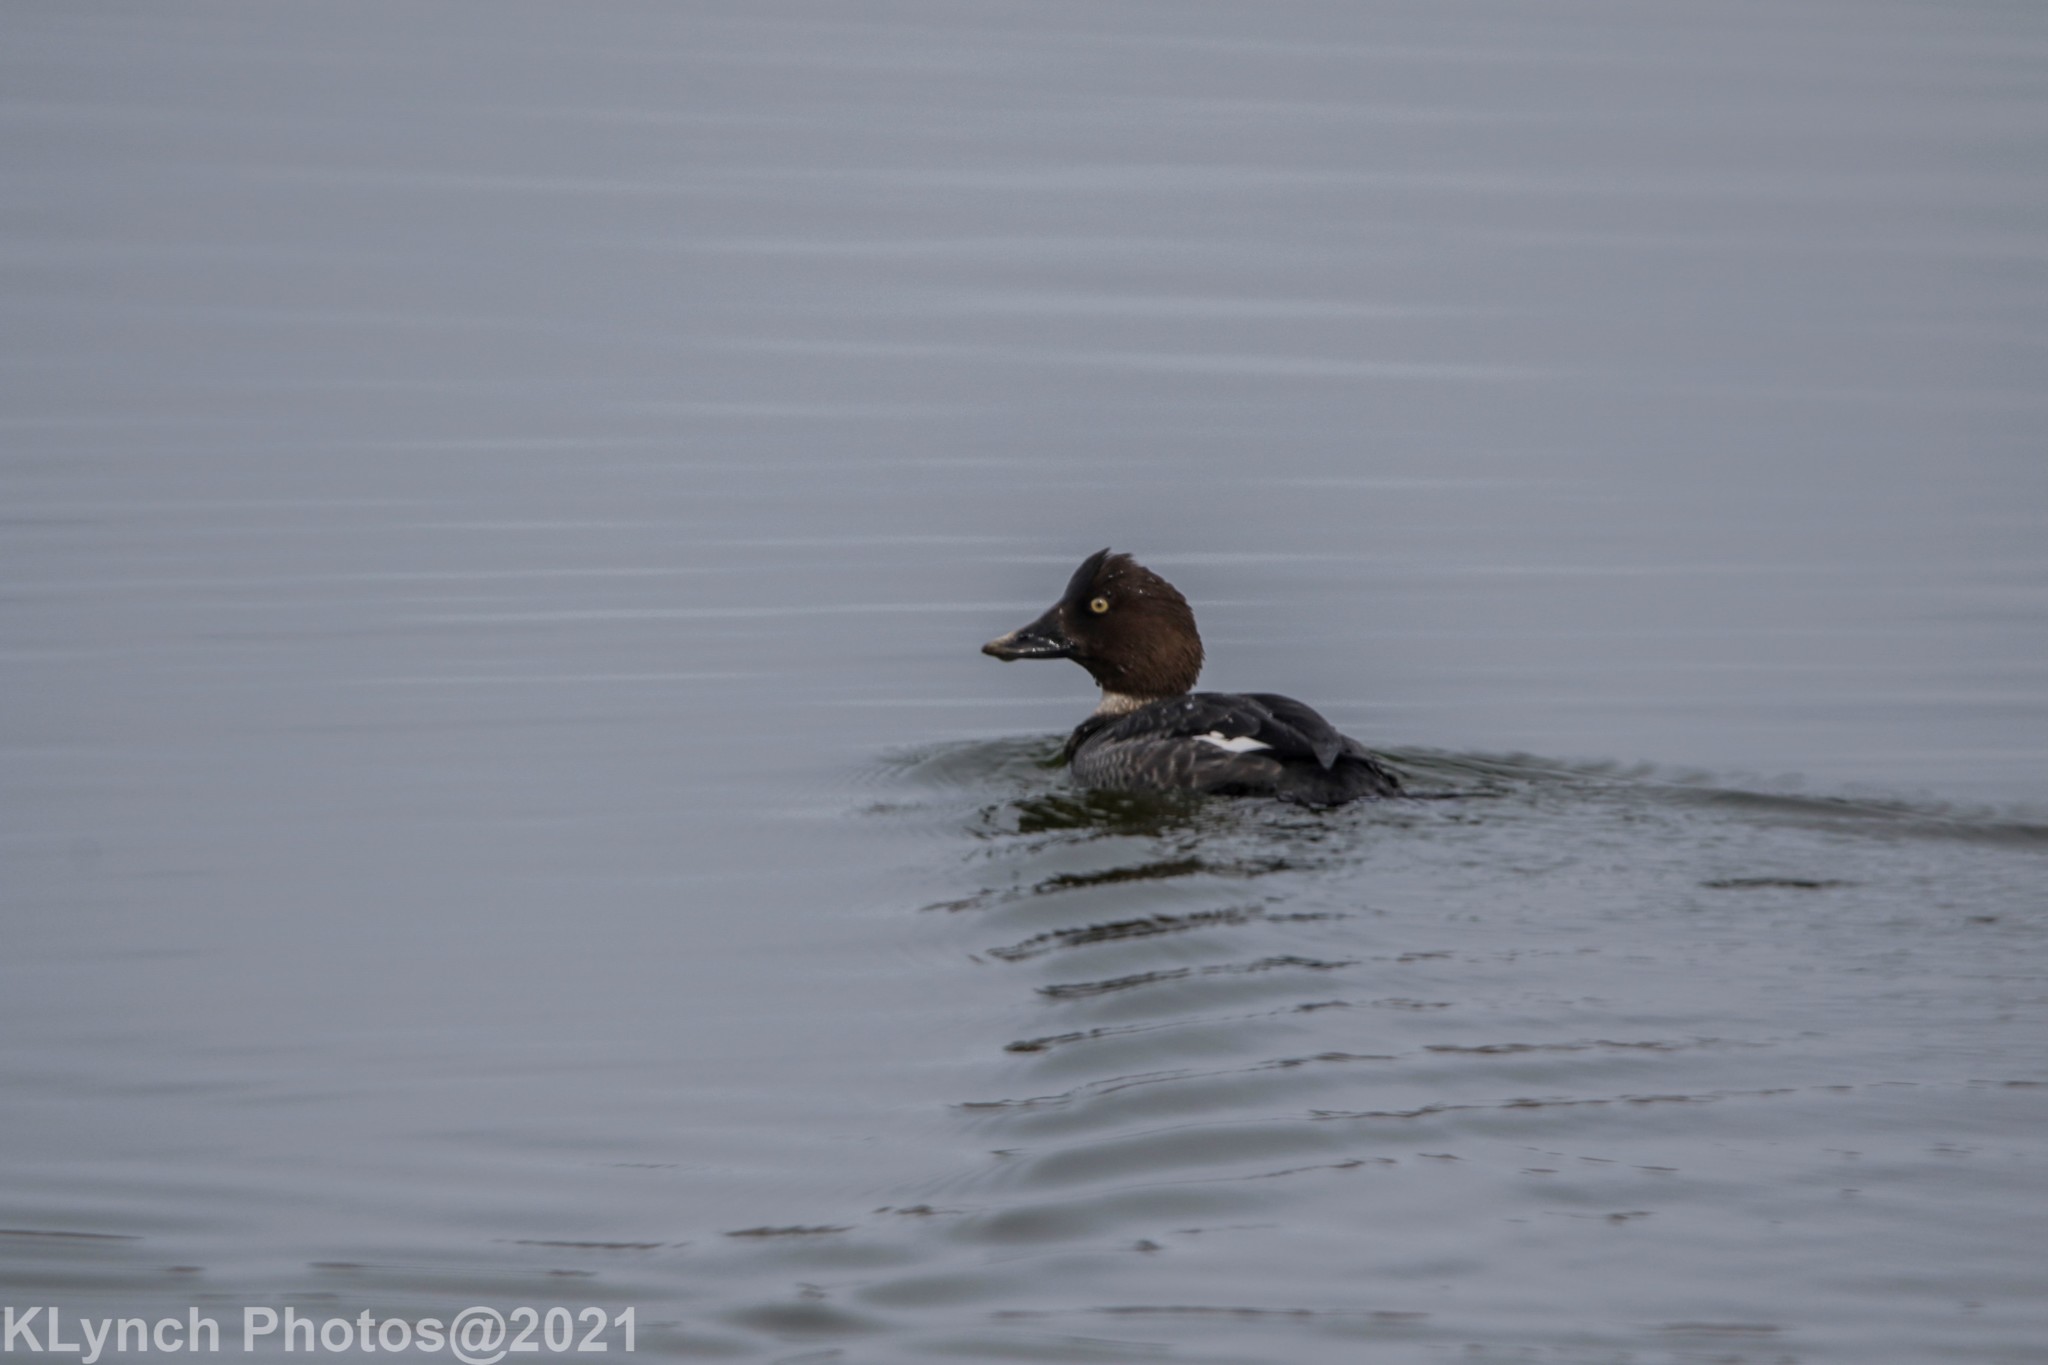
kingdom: Animalia
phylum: Chordata
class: Aves
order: Anseriformes
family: Anatidae
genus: Bucephala
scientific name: Bucephala clangula
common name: Common goldeneye
